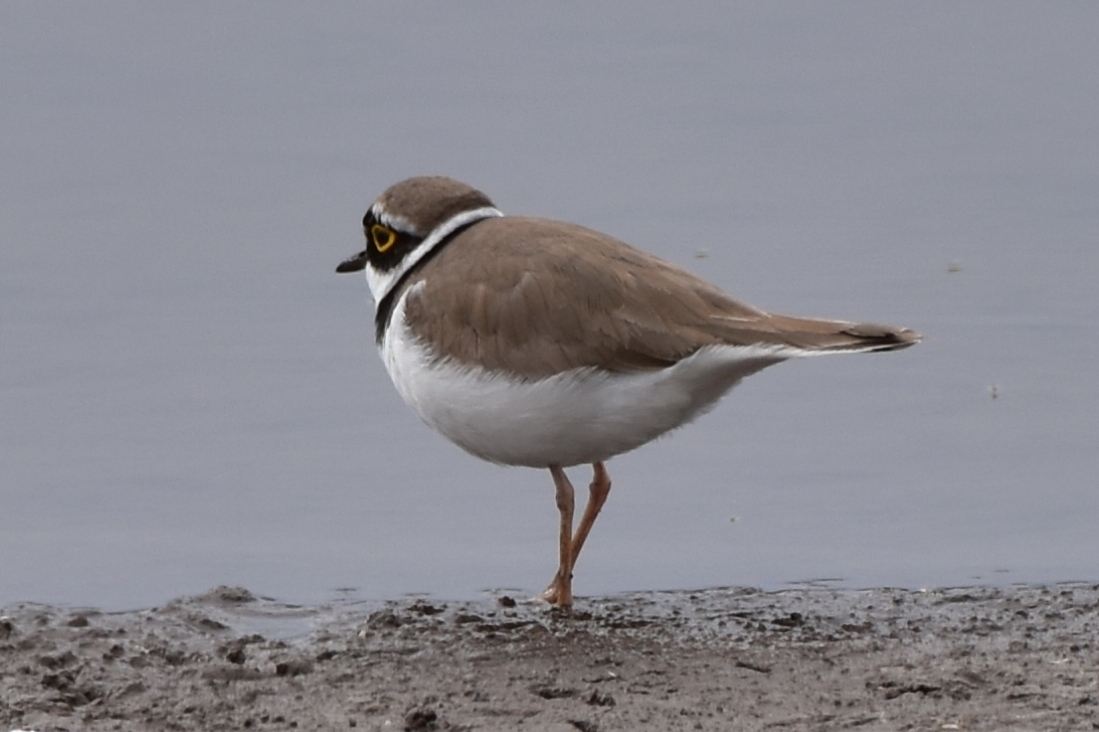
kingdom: Animalia
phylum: Chordata
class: Aves
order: Charadriiformes
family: Charadriidae
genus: Charadrius
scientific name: Charadrius dubius
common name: Little ringed plover
